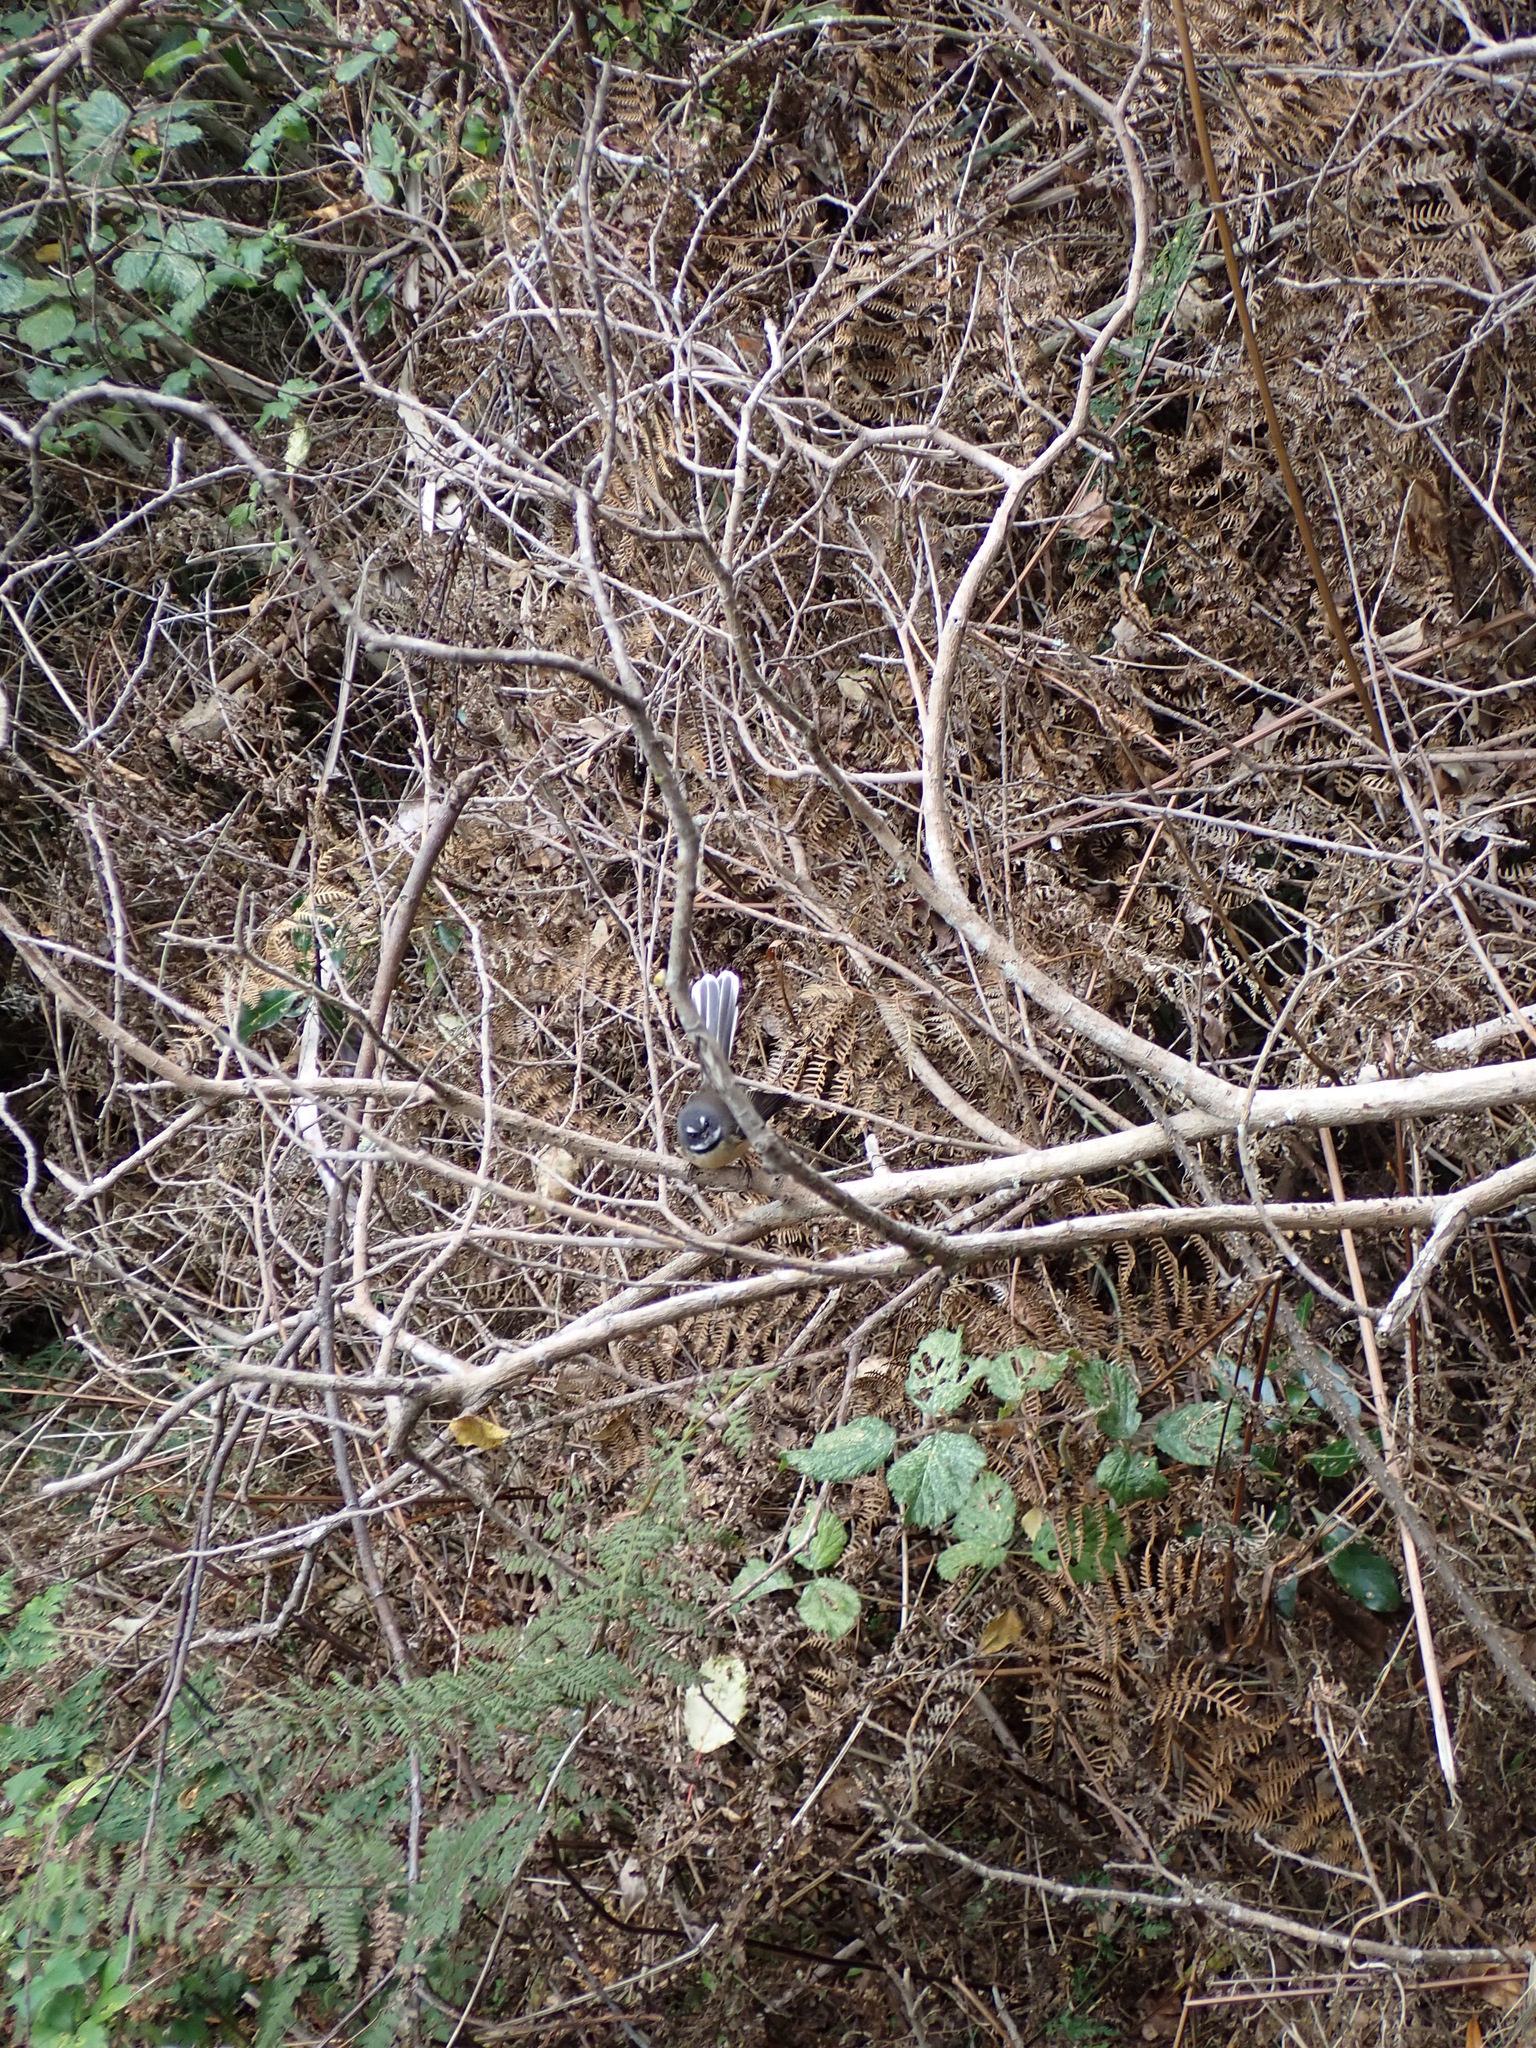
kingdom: Animalia
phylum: Chordata
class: Aves
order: Passeriformes
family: Rhipiduridae
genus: Rhipidura
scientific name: Rhipidura fuliginosa
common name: New zealand fantail
